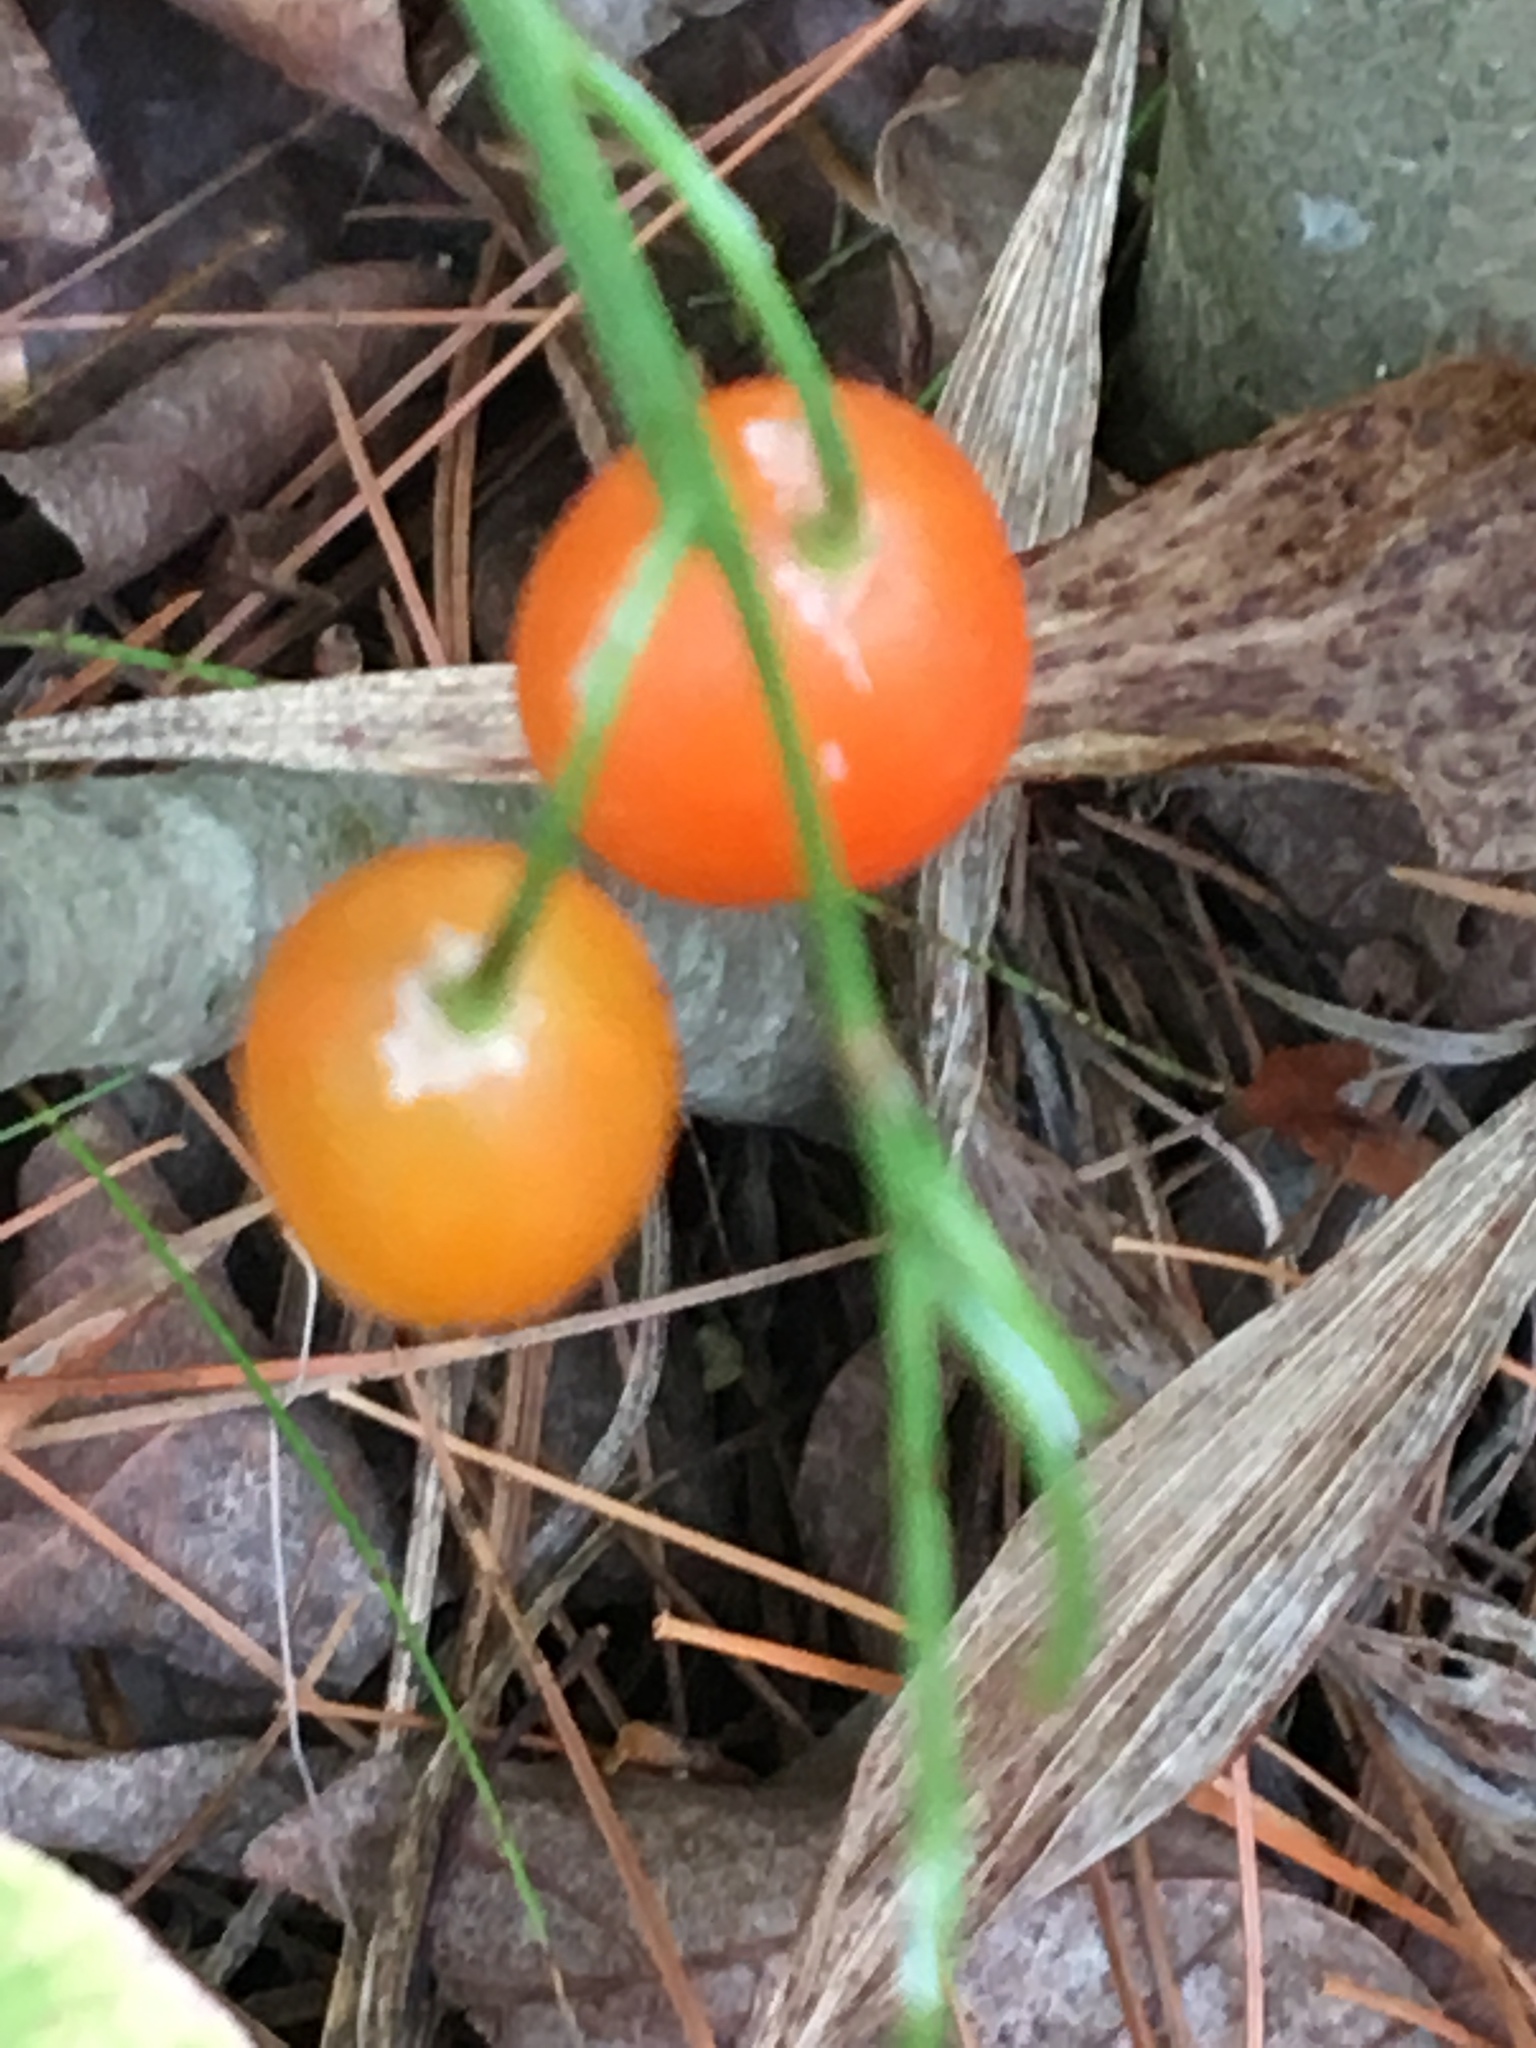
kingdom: Plantae
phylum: Tracheophyta
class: Liliopsida
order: Asparagales
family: Asparagaceae
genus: Convallaria
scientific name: Convallaria majalis
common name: Lily-of-the-valley
